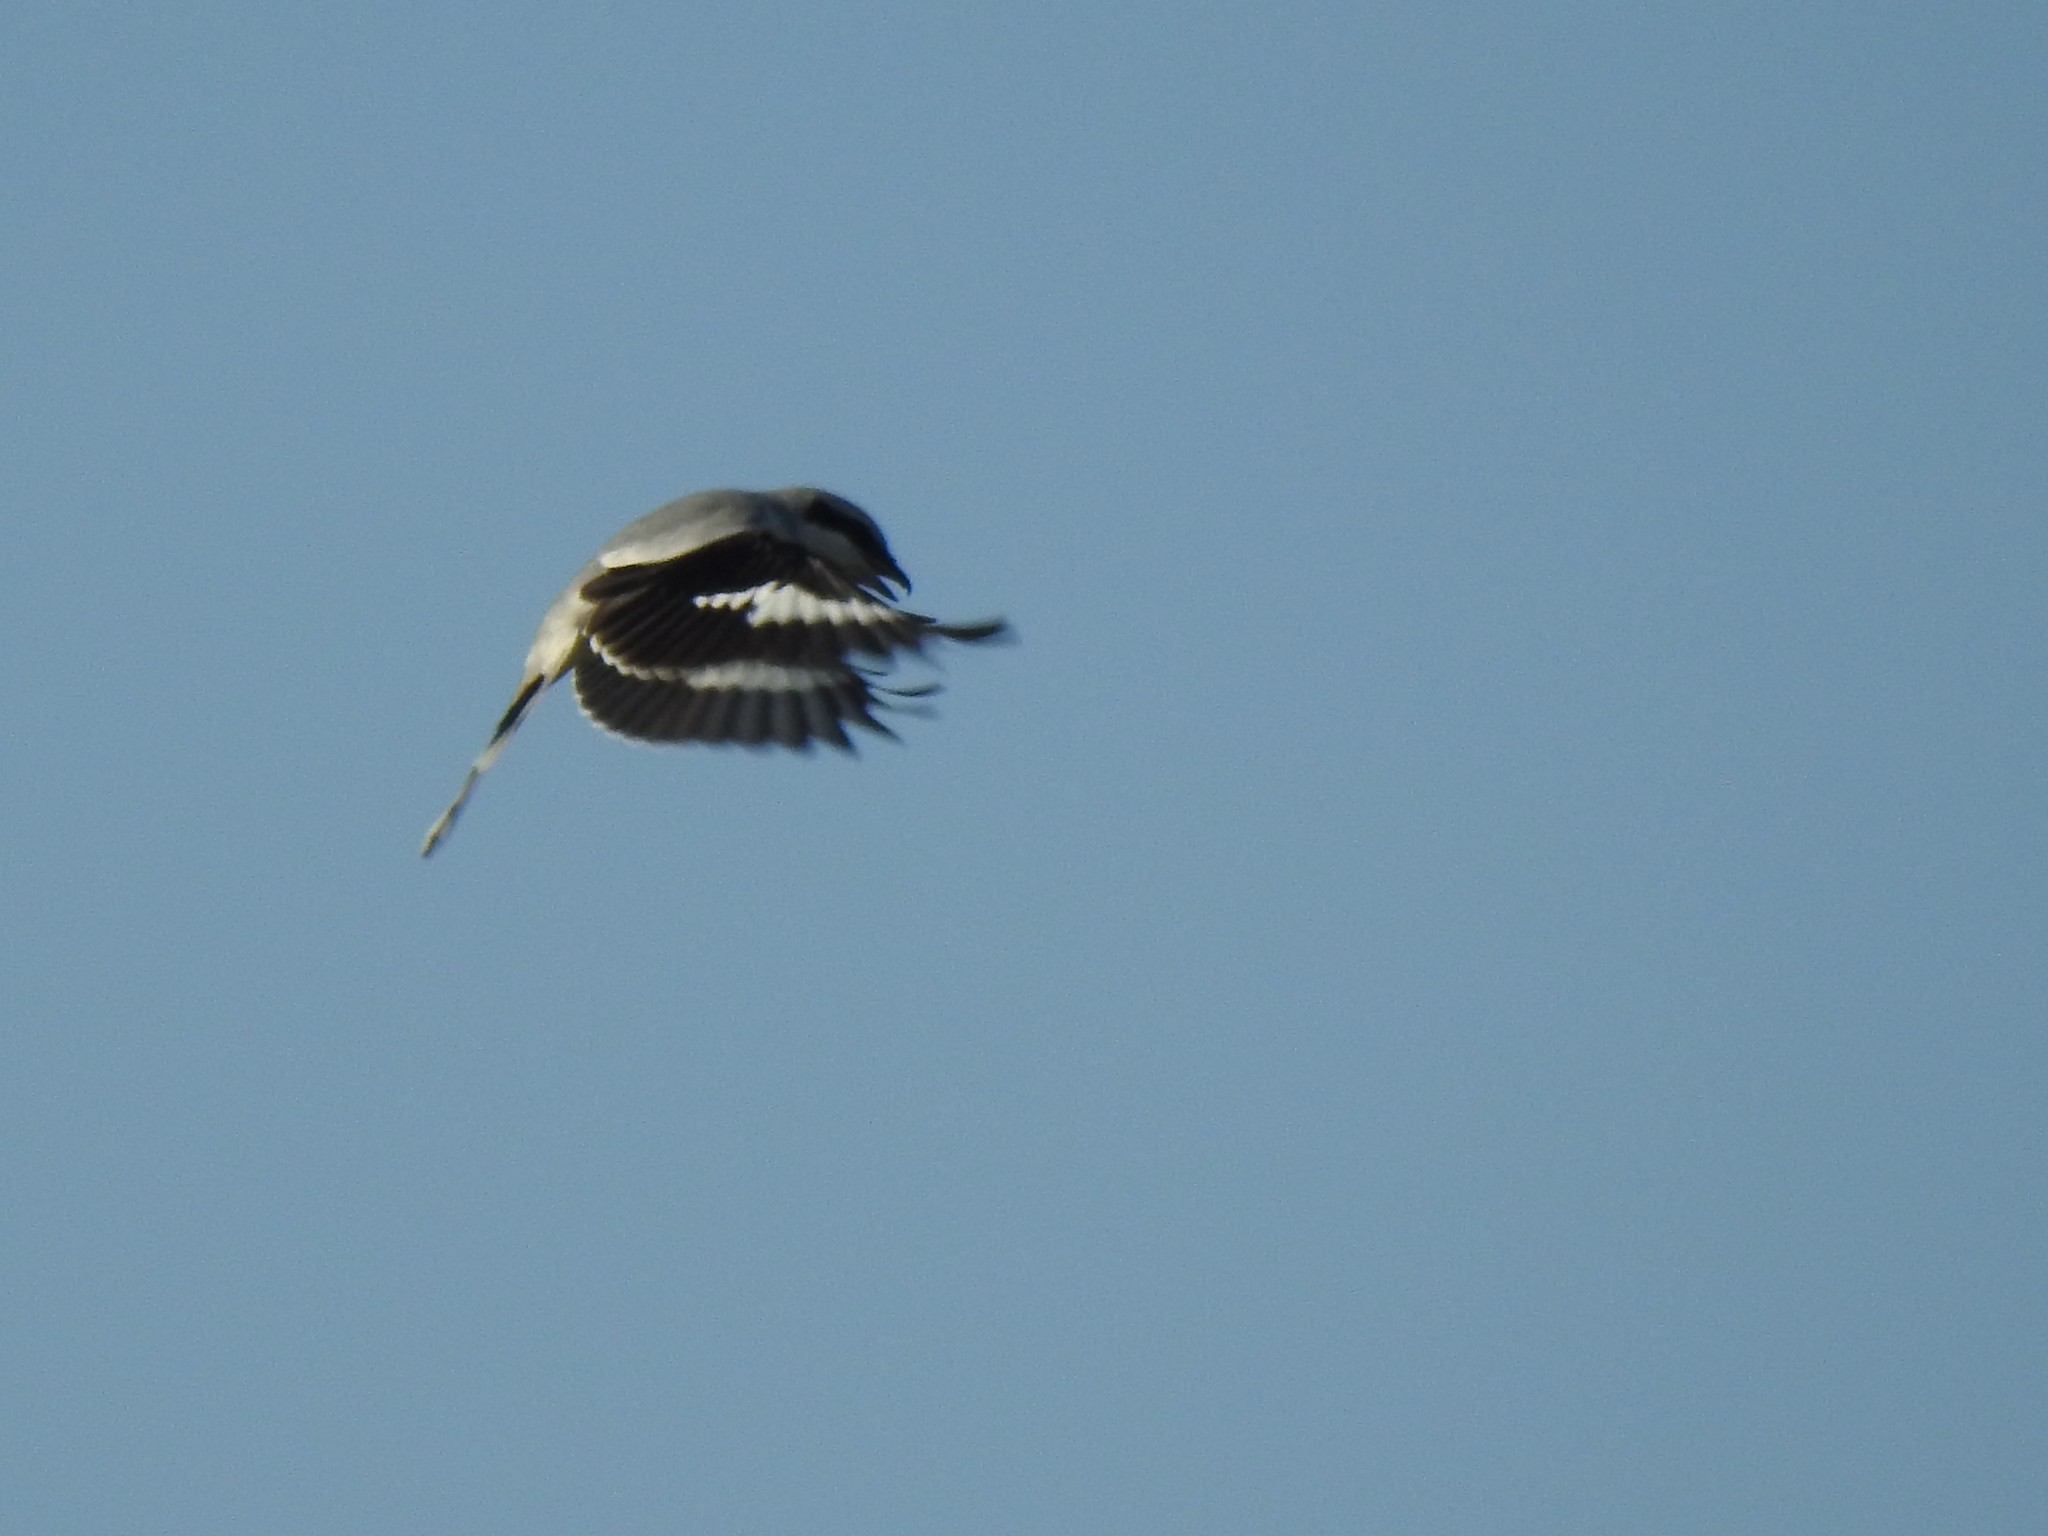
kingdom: Animalia
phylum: Chordata
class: Aves
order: Passeriformes
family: Laniidae
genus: Lanius
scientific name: Lanius excubitor
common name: Great grey shrike
